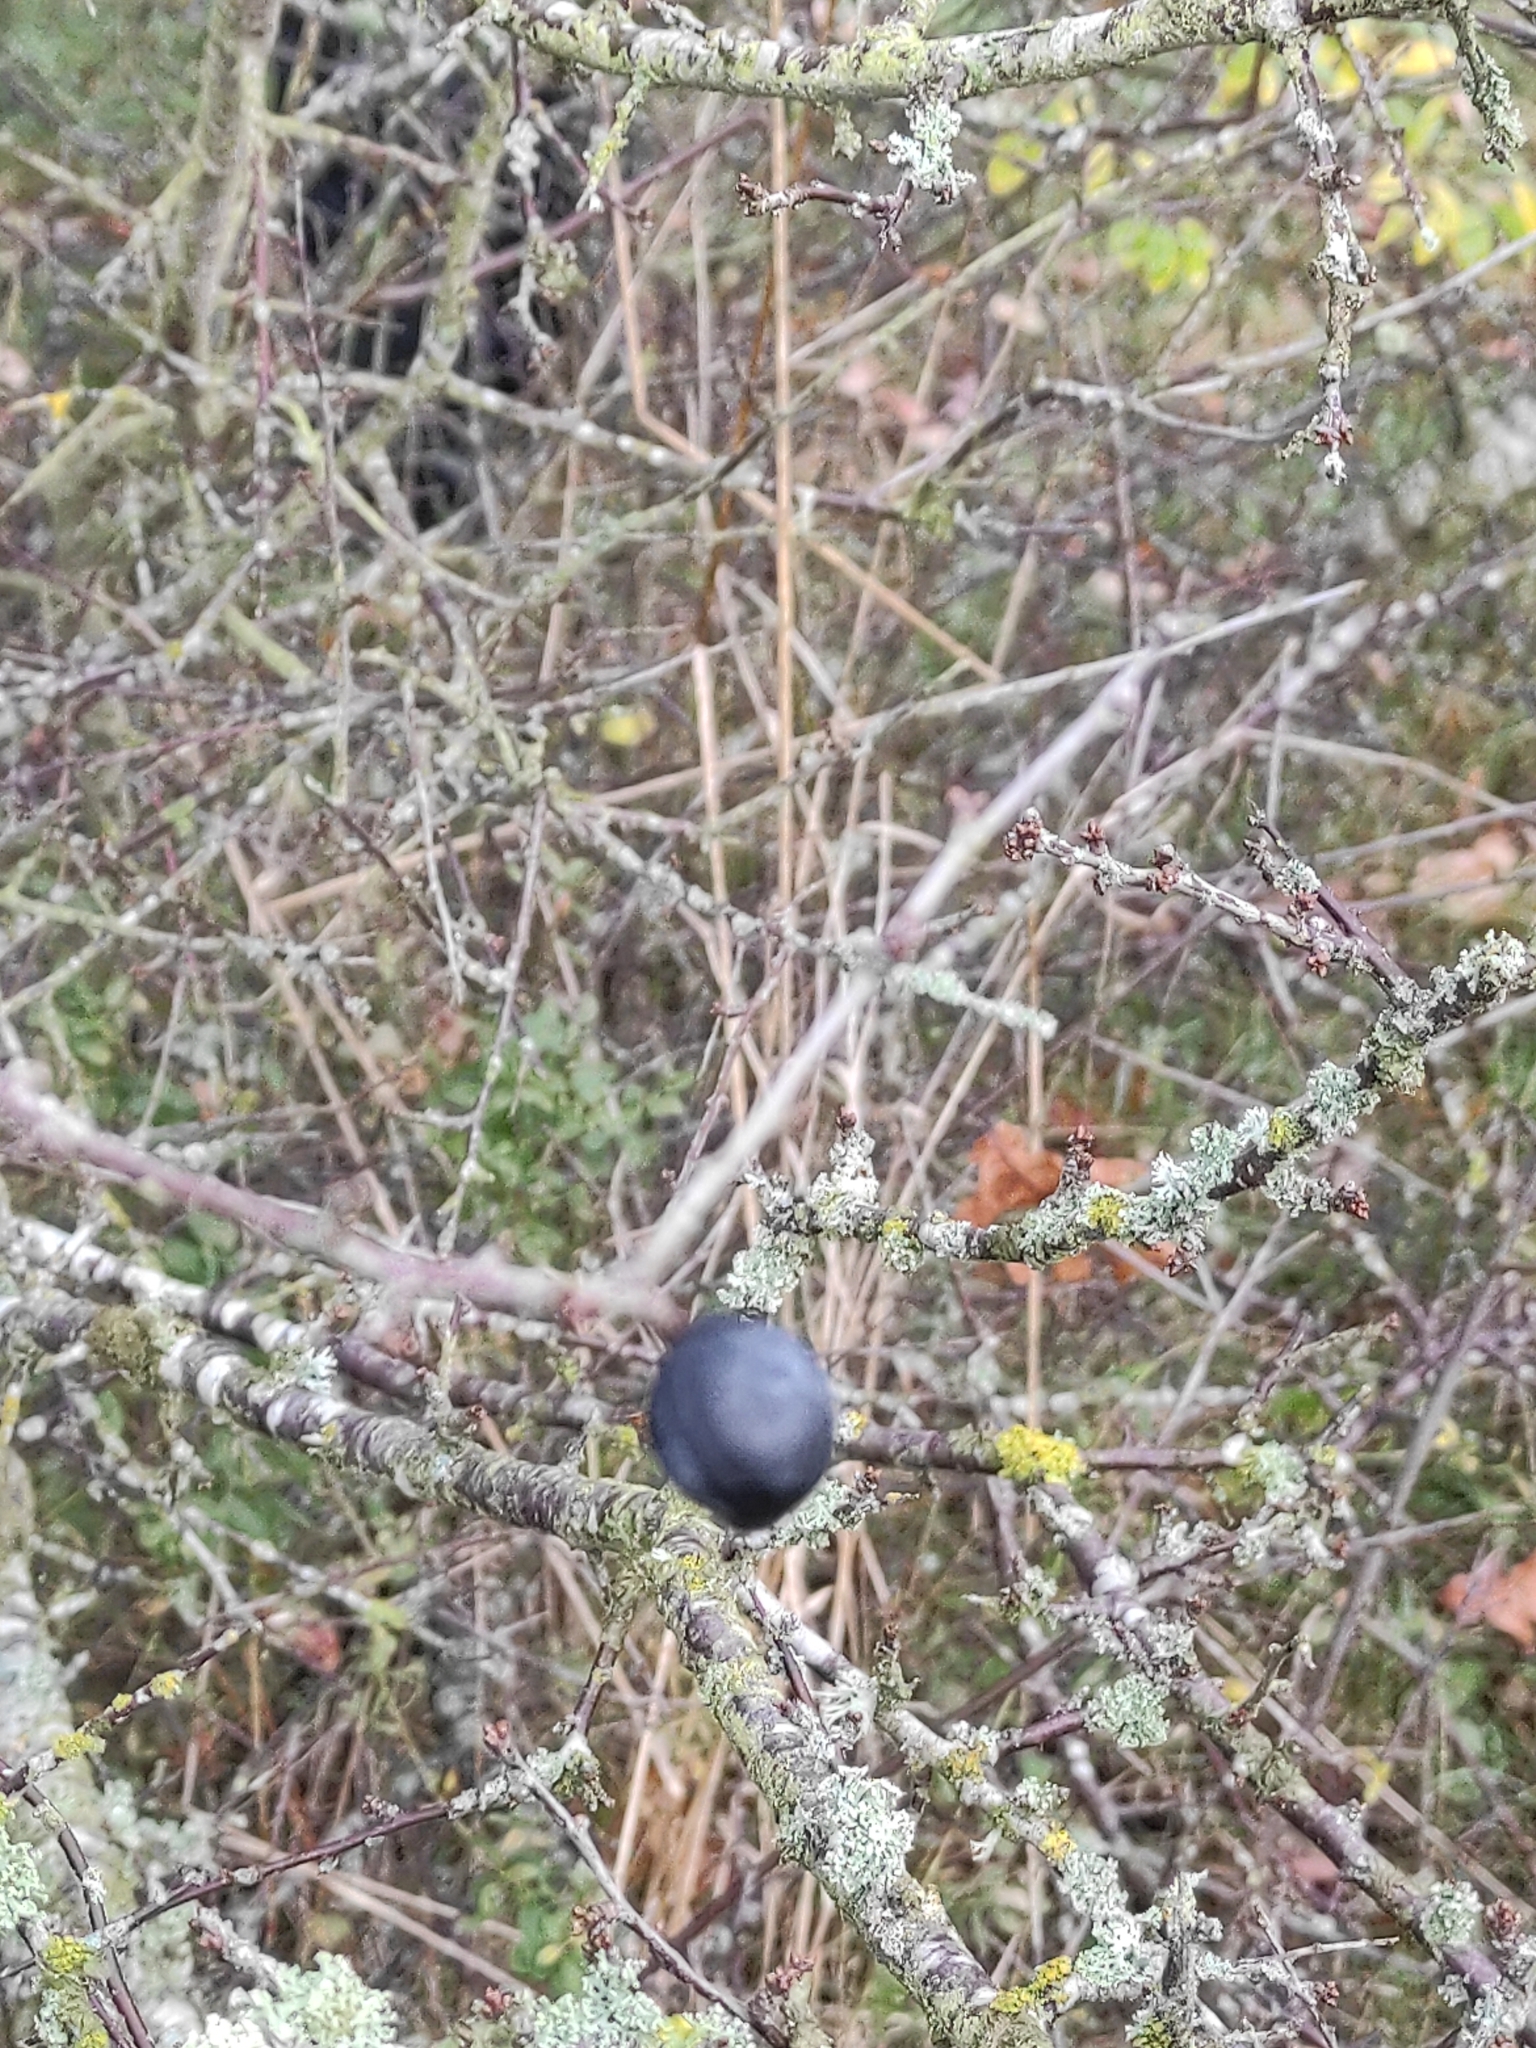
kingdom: Plantae
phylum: Tracheophyta
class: Magnoliopsida
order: Rosales
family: Rosaceae
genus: Prunus
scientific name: Prunus spinosa
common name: Blackthorn
